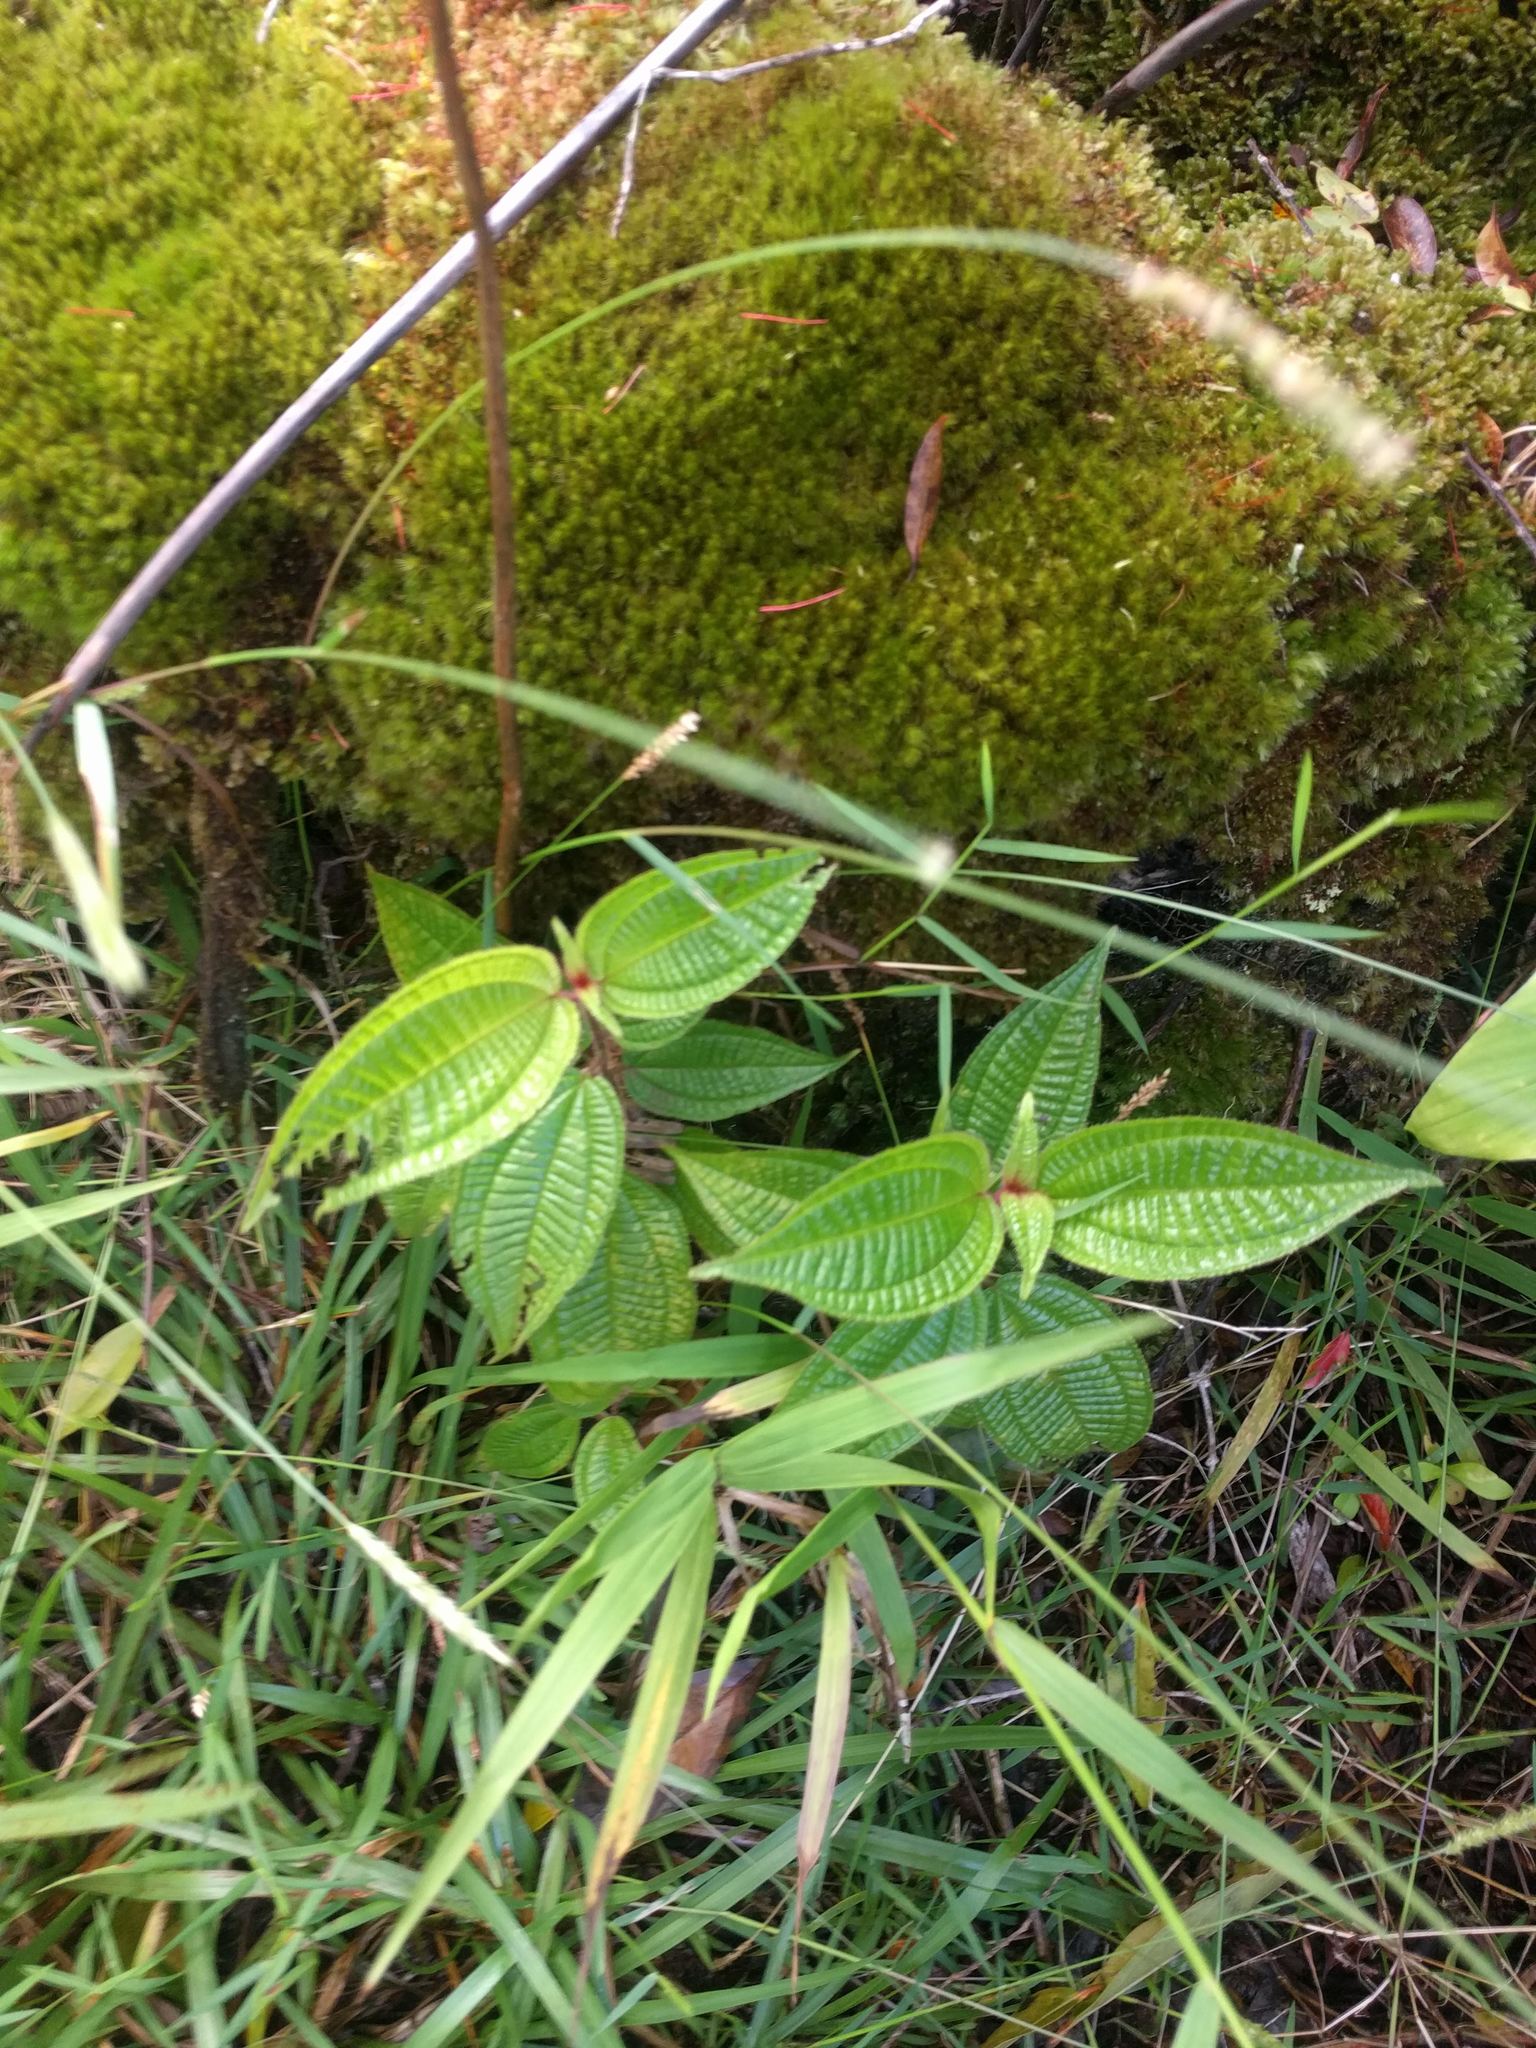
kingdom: Plantae
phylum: Tracheophyta
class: Magnoliopsida
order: Myrtales
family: Melastomataceae
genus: Miconia
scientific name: Miconia crenata
